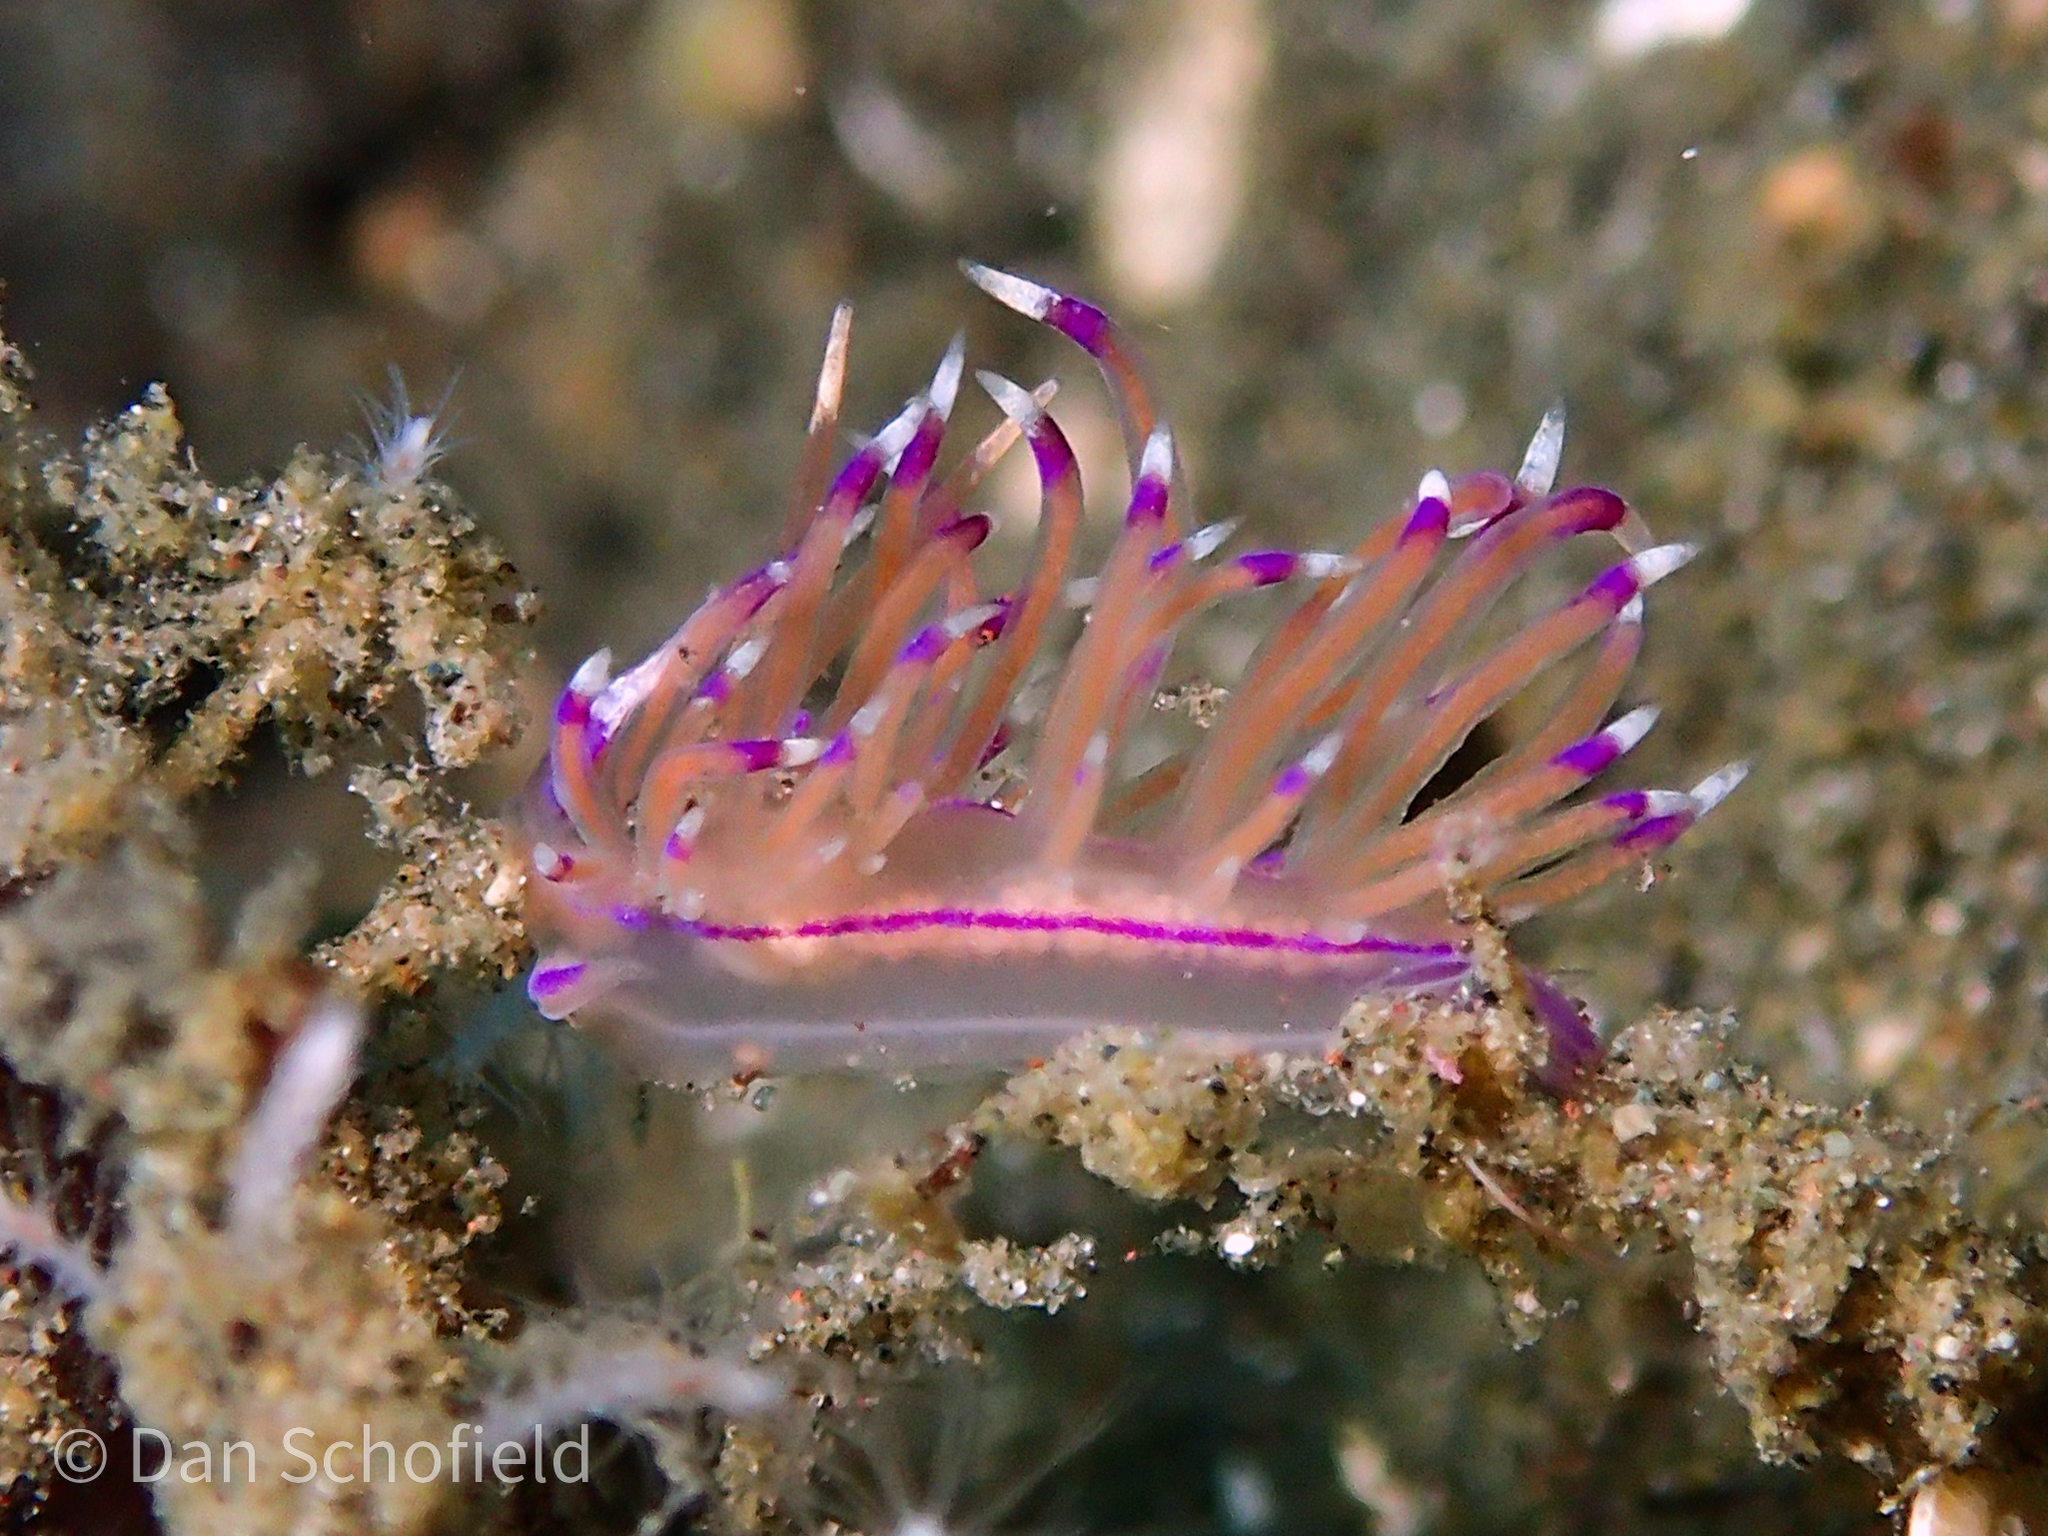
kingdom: Animalia
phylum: Mollusca
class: Gastropoda
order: Nudibranchia
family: Unidentiidae
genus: Unidentia
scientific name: Unidentia sandramillenae
